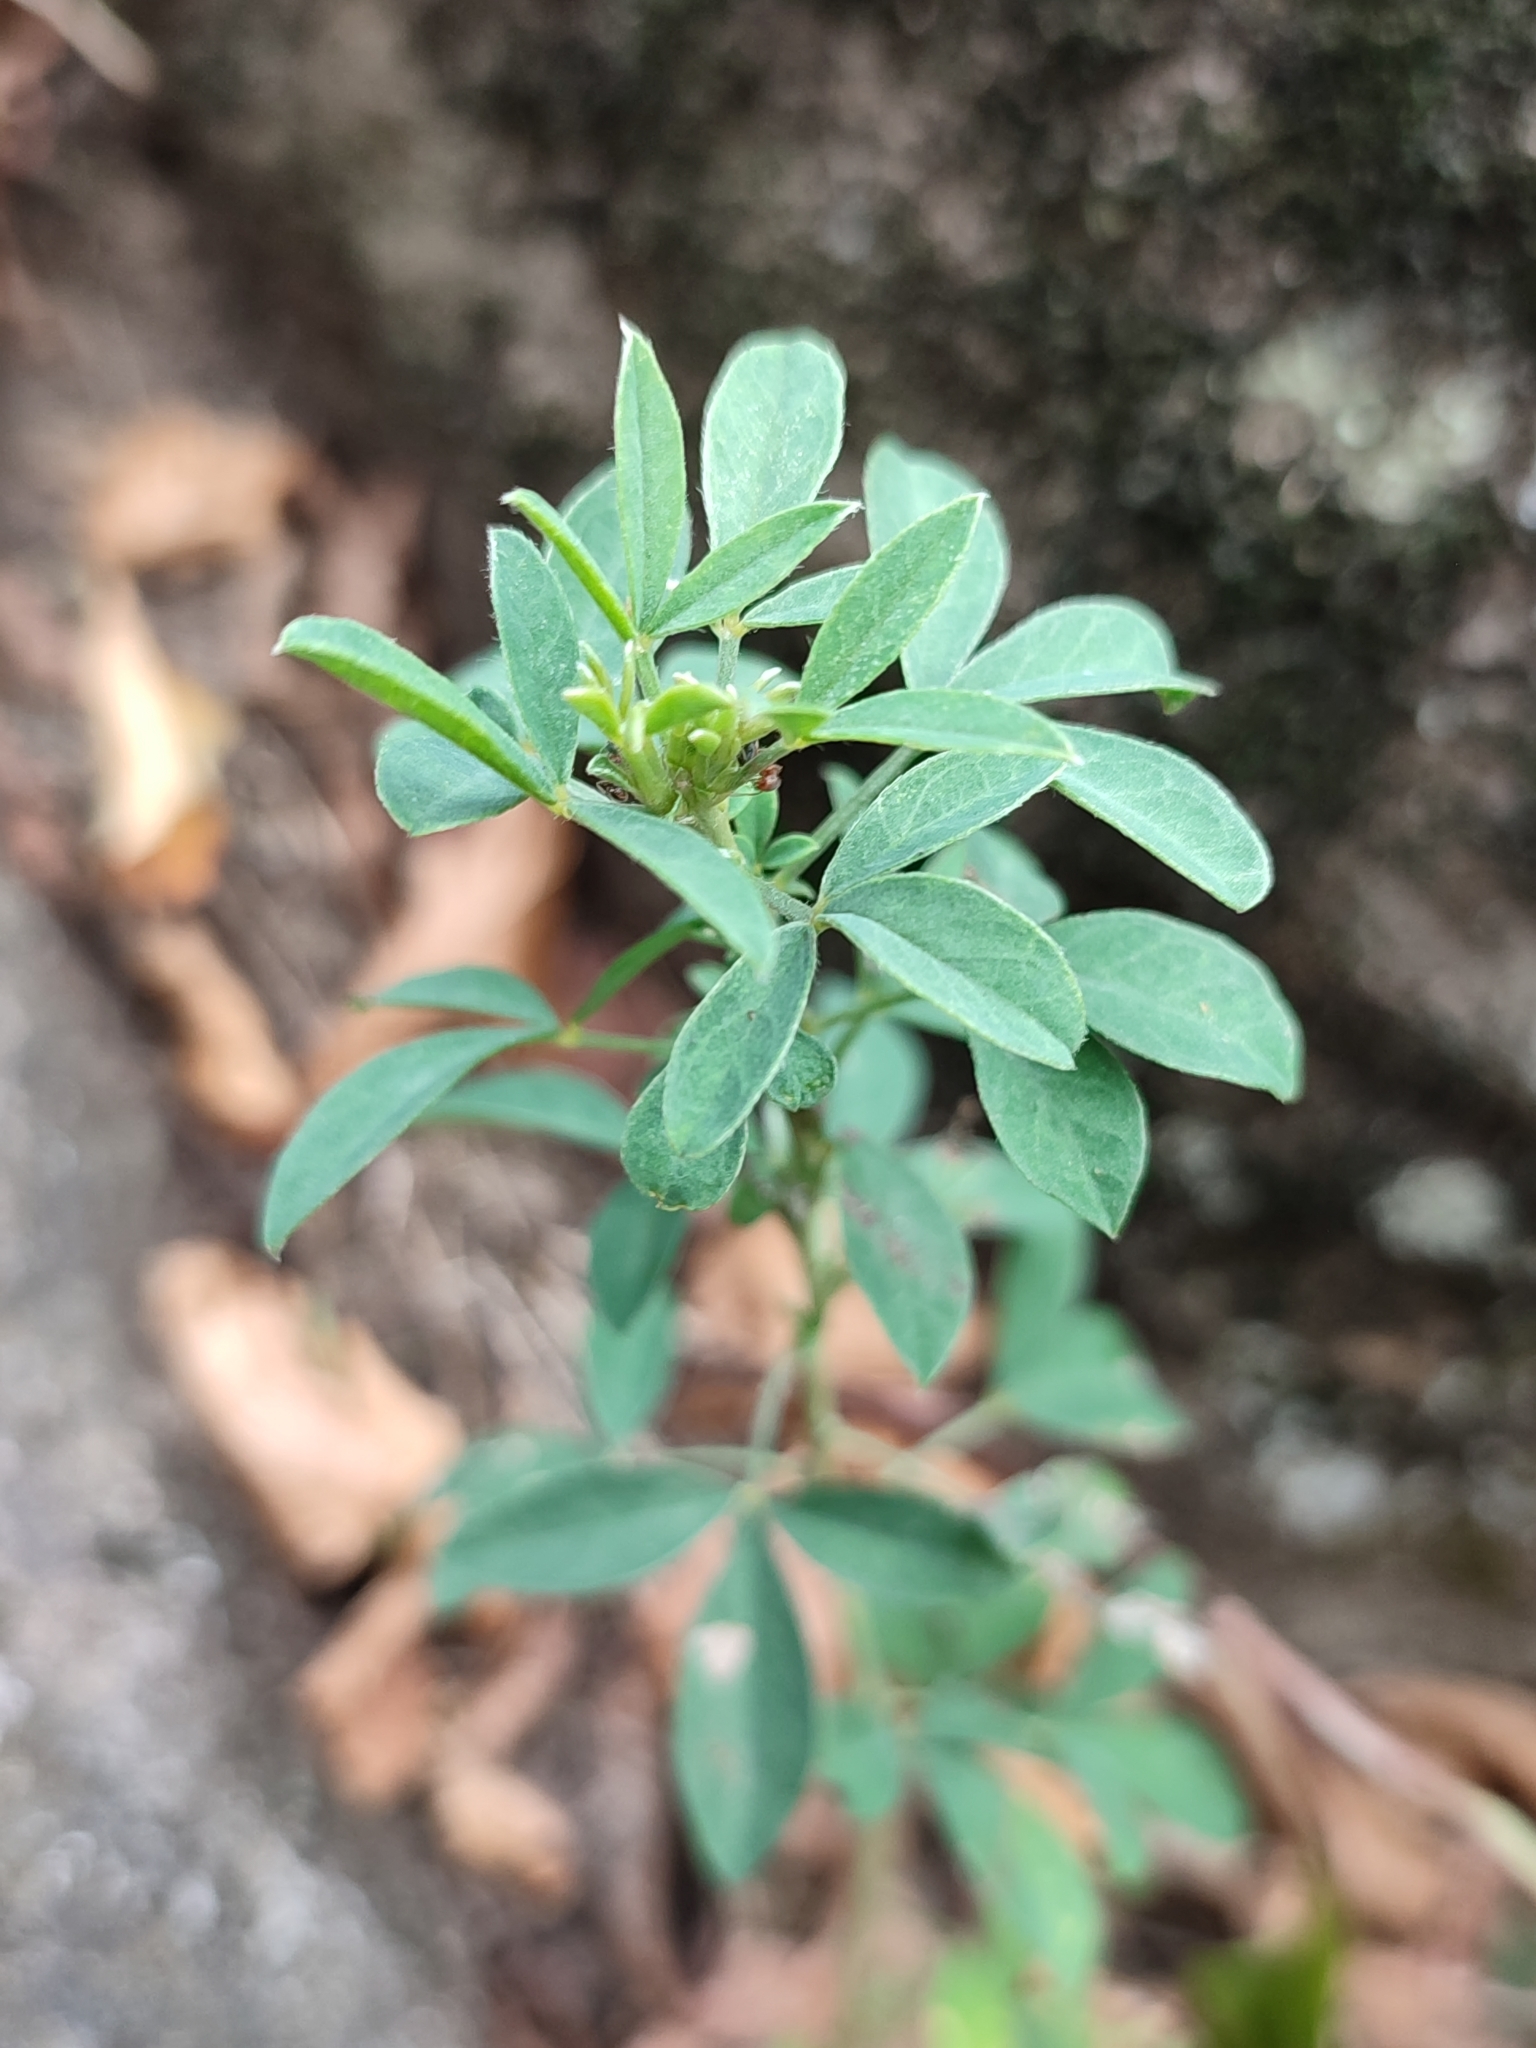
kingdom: Plantae
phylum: Tracheophyta
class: Magnoliopsida
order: Fabales
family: Fabaceae
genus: Chamaecytisus
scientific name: Chamaecytisus ruthenicus
